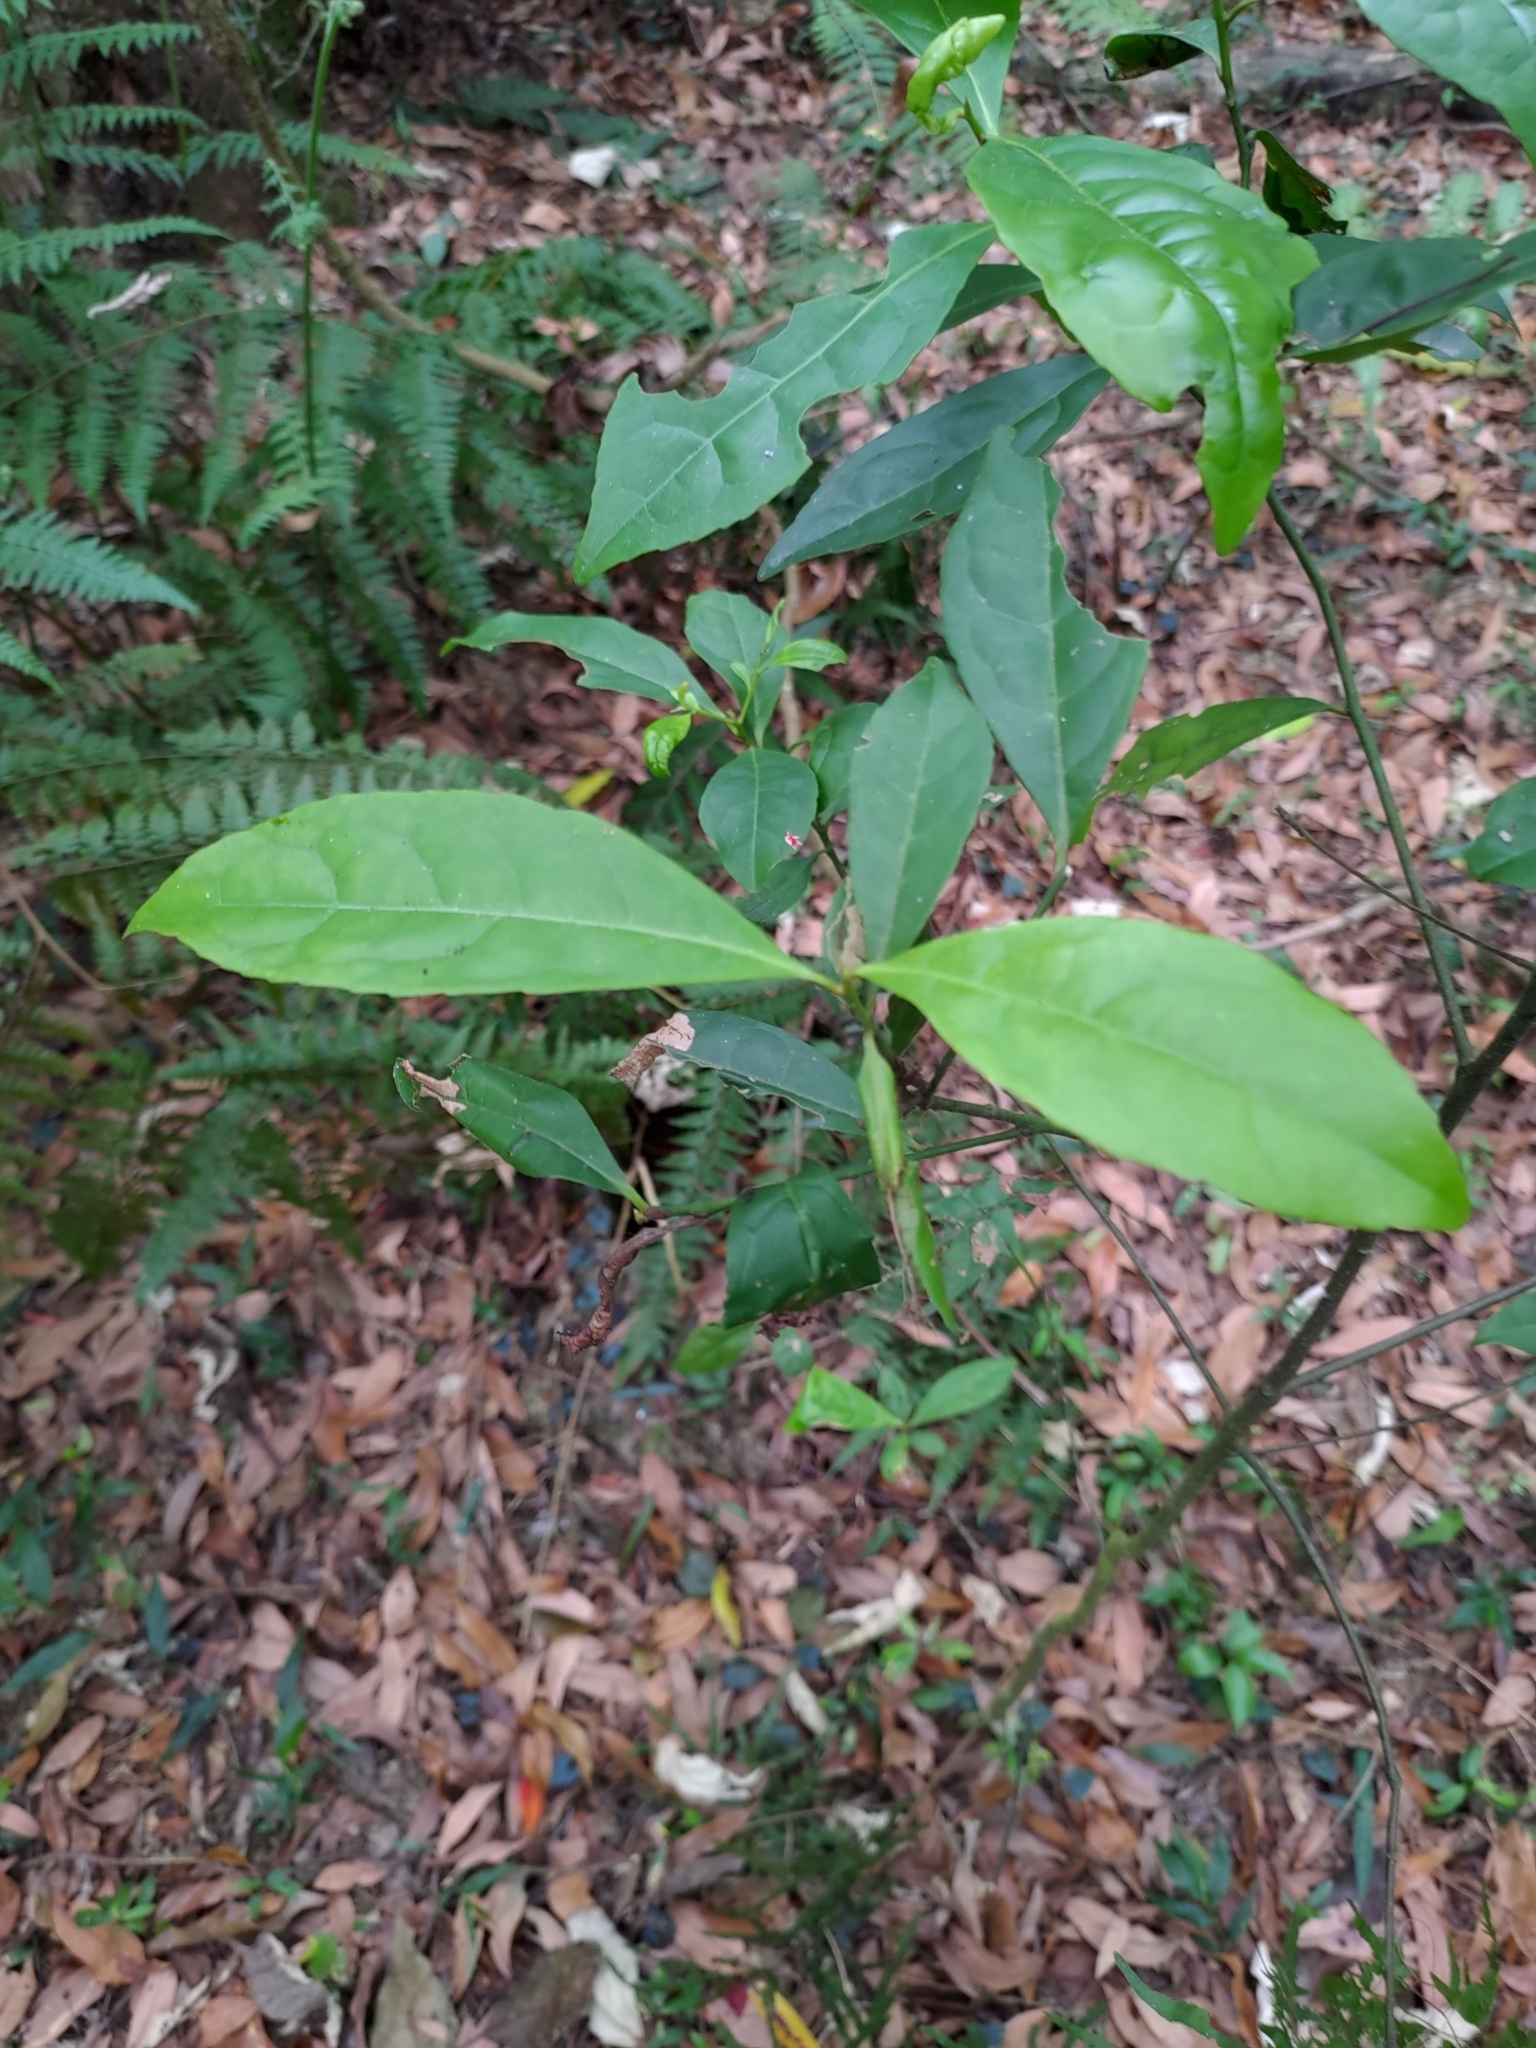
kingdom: Plantae
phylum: Tracheophyta
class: Magnoliopsida
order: Gentianales
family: Rubiaceae
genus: Psychotria
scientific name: Psychotria asiatica
